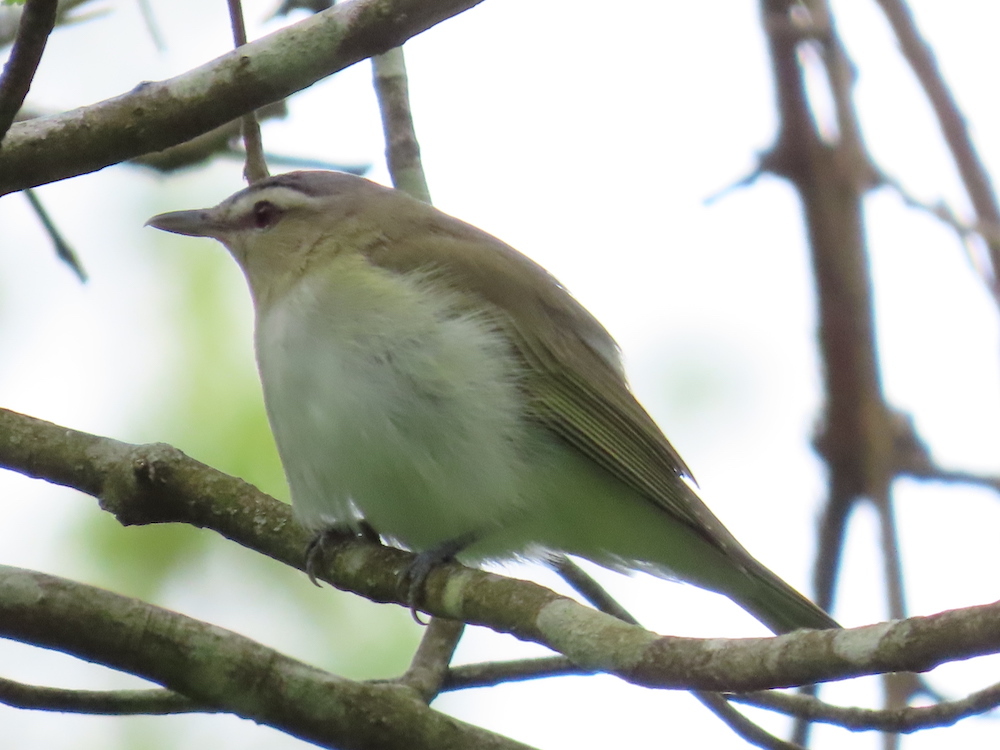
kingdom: Animalia
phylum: Chordata
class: Aves
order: Passeriformes
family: Vireonidae
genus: Vireo
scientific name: Vireo olivaceus
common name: Red-eyed vireo
